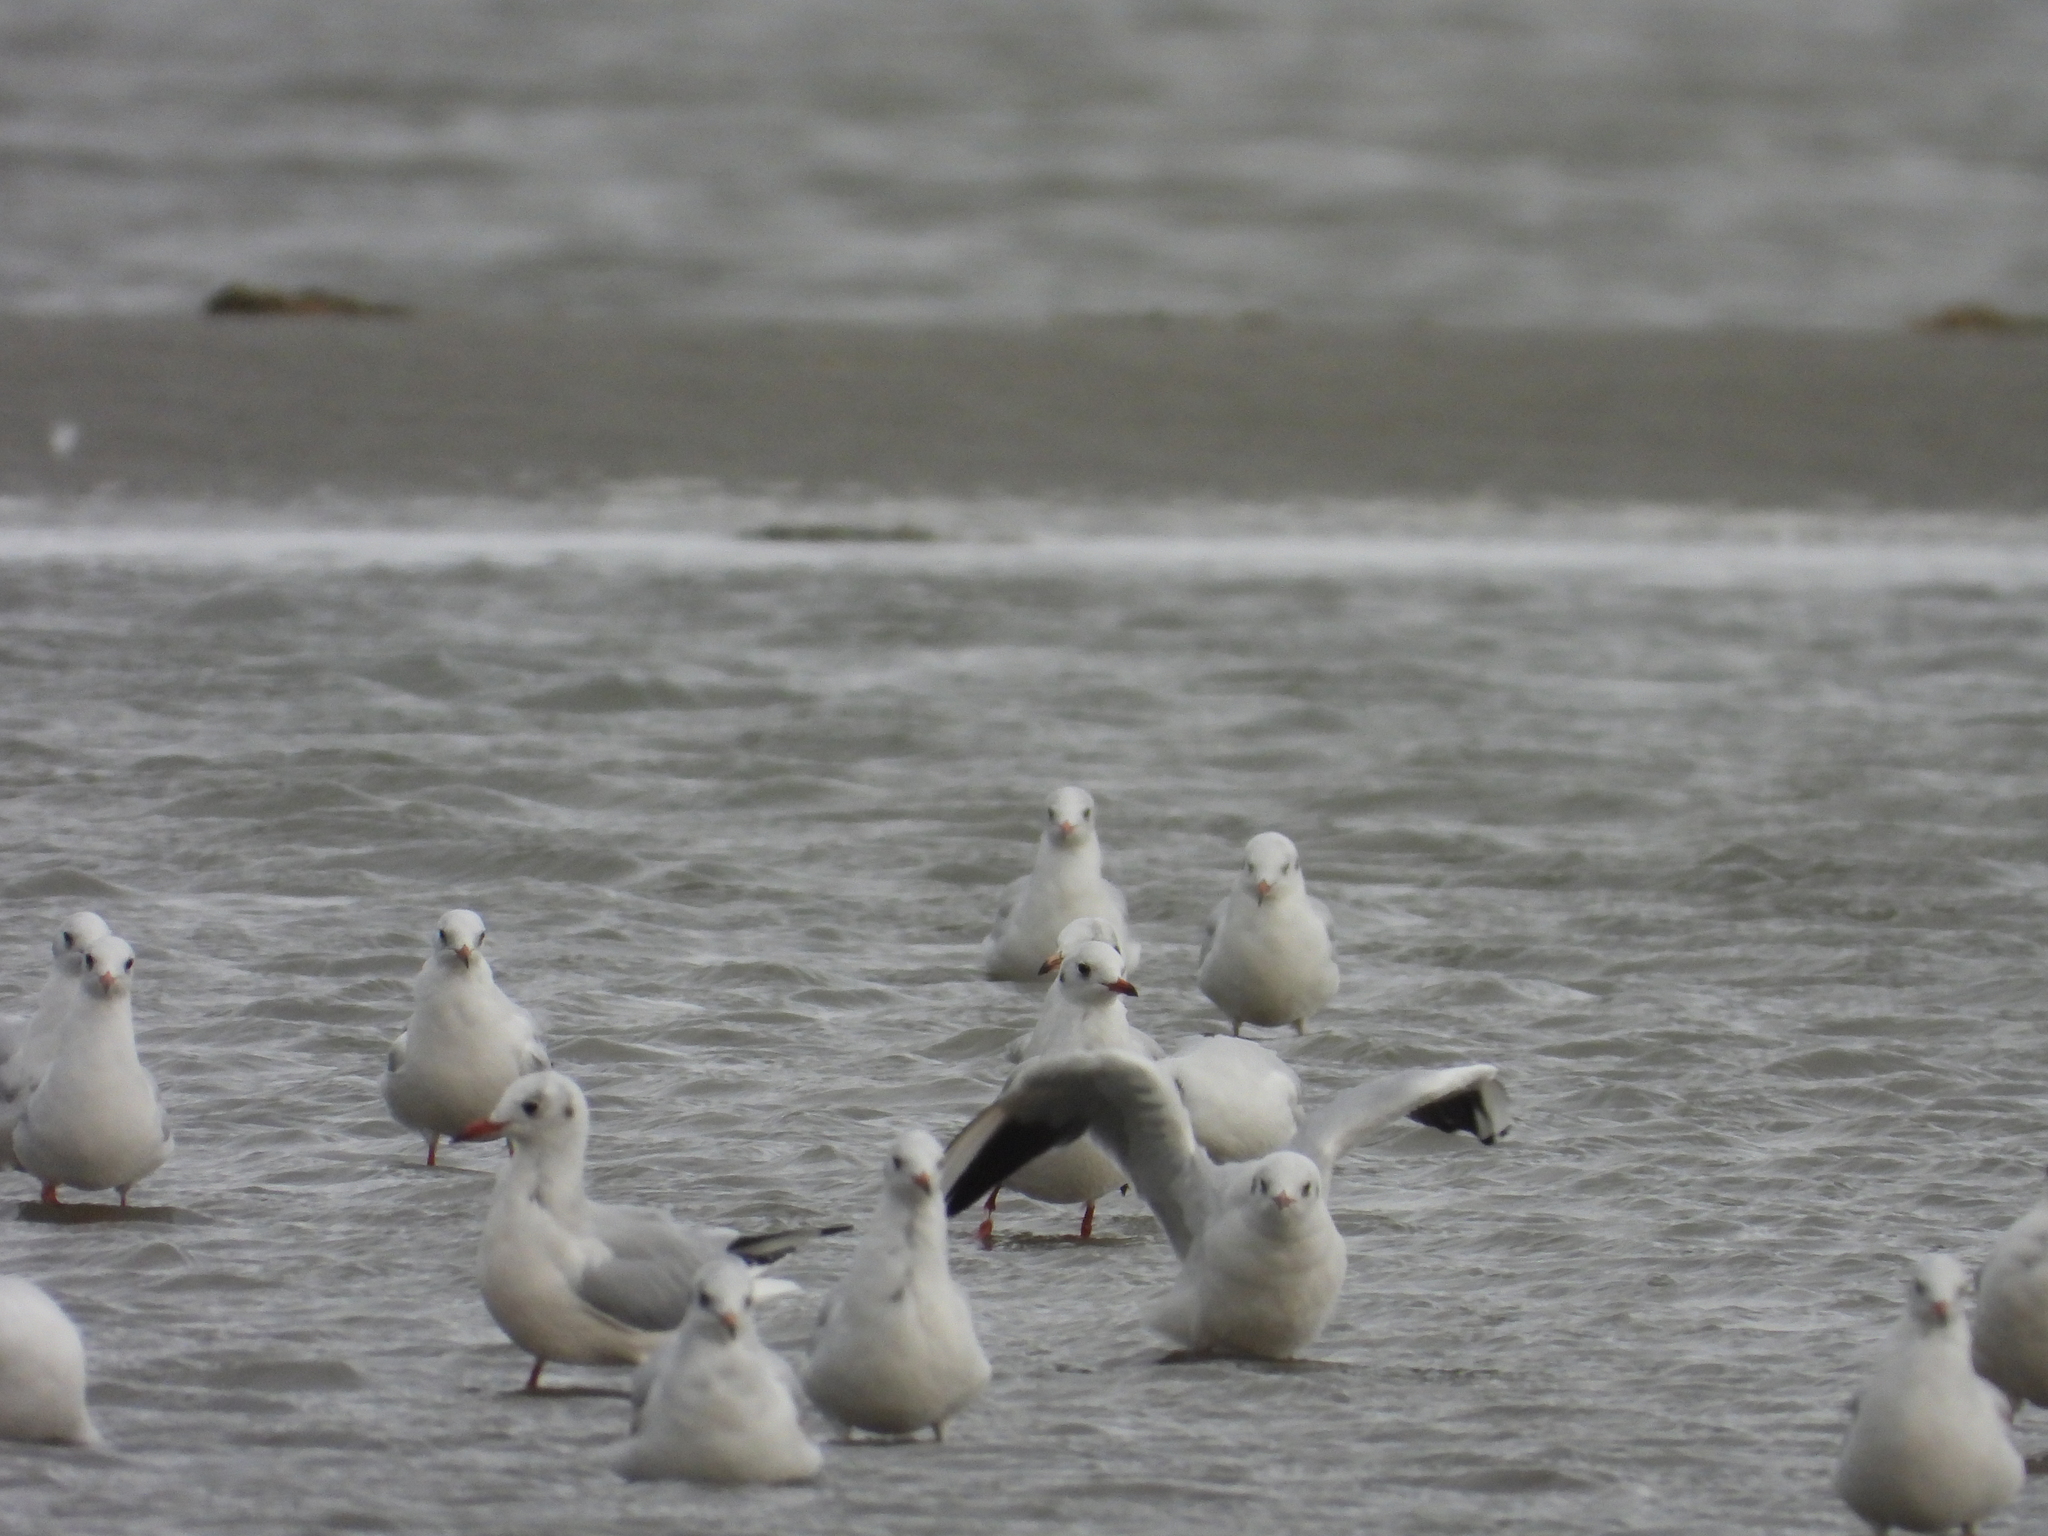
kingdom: Animalia
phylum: Chordata
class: Aves
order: Charadriiformes
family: Laridae
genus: Chroicocephalus
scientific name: Chroicocephalus ridibundus
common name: Black-headed gull
